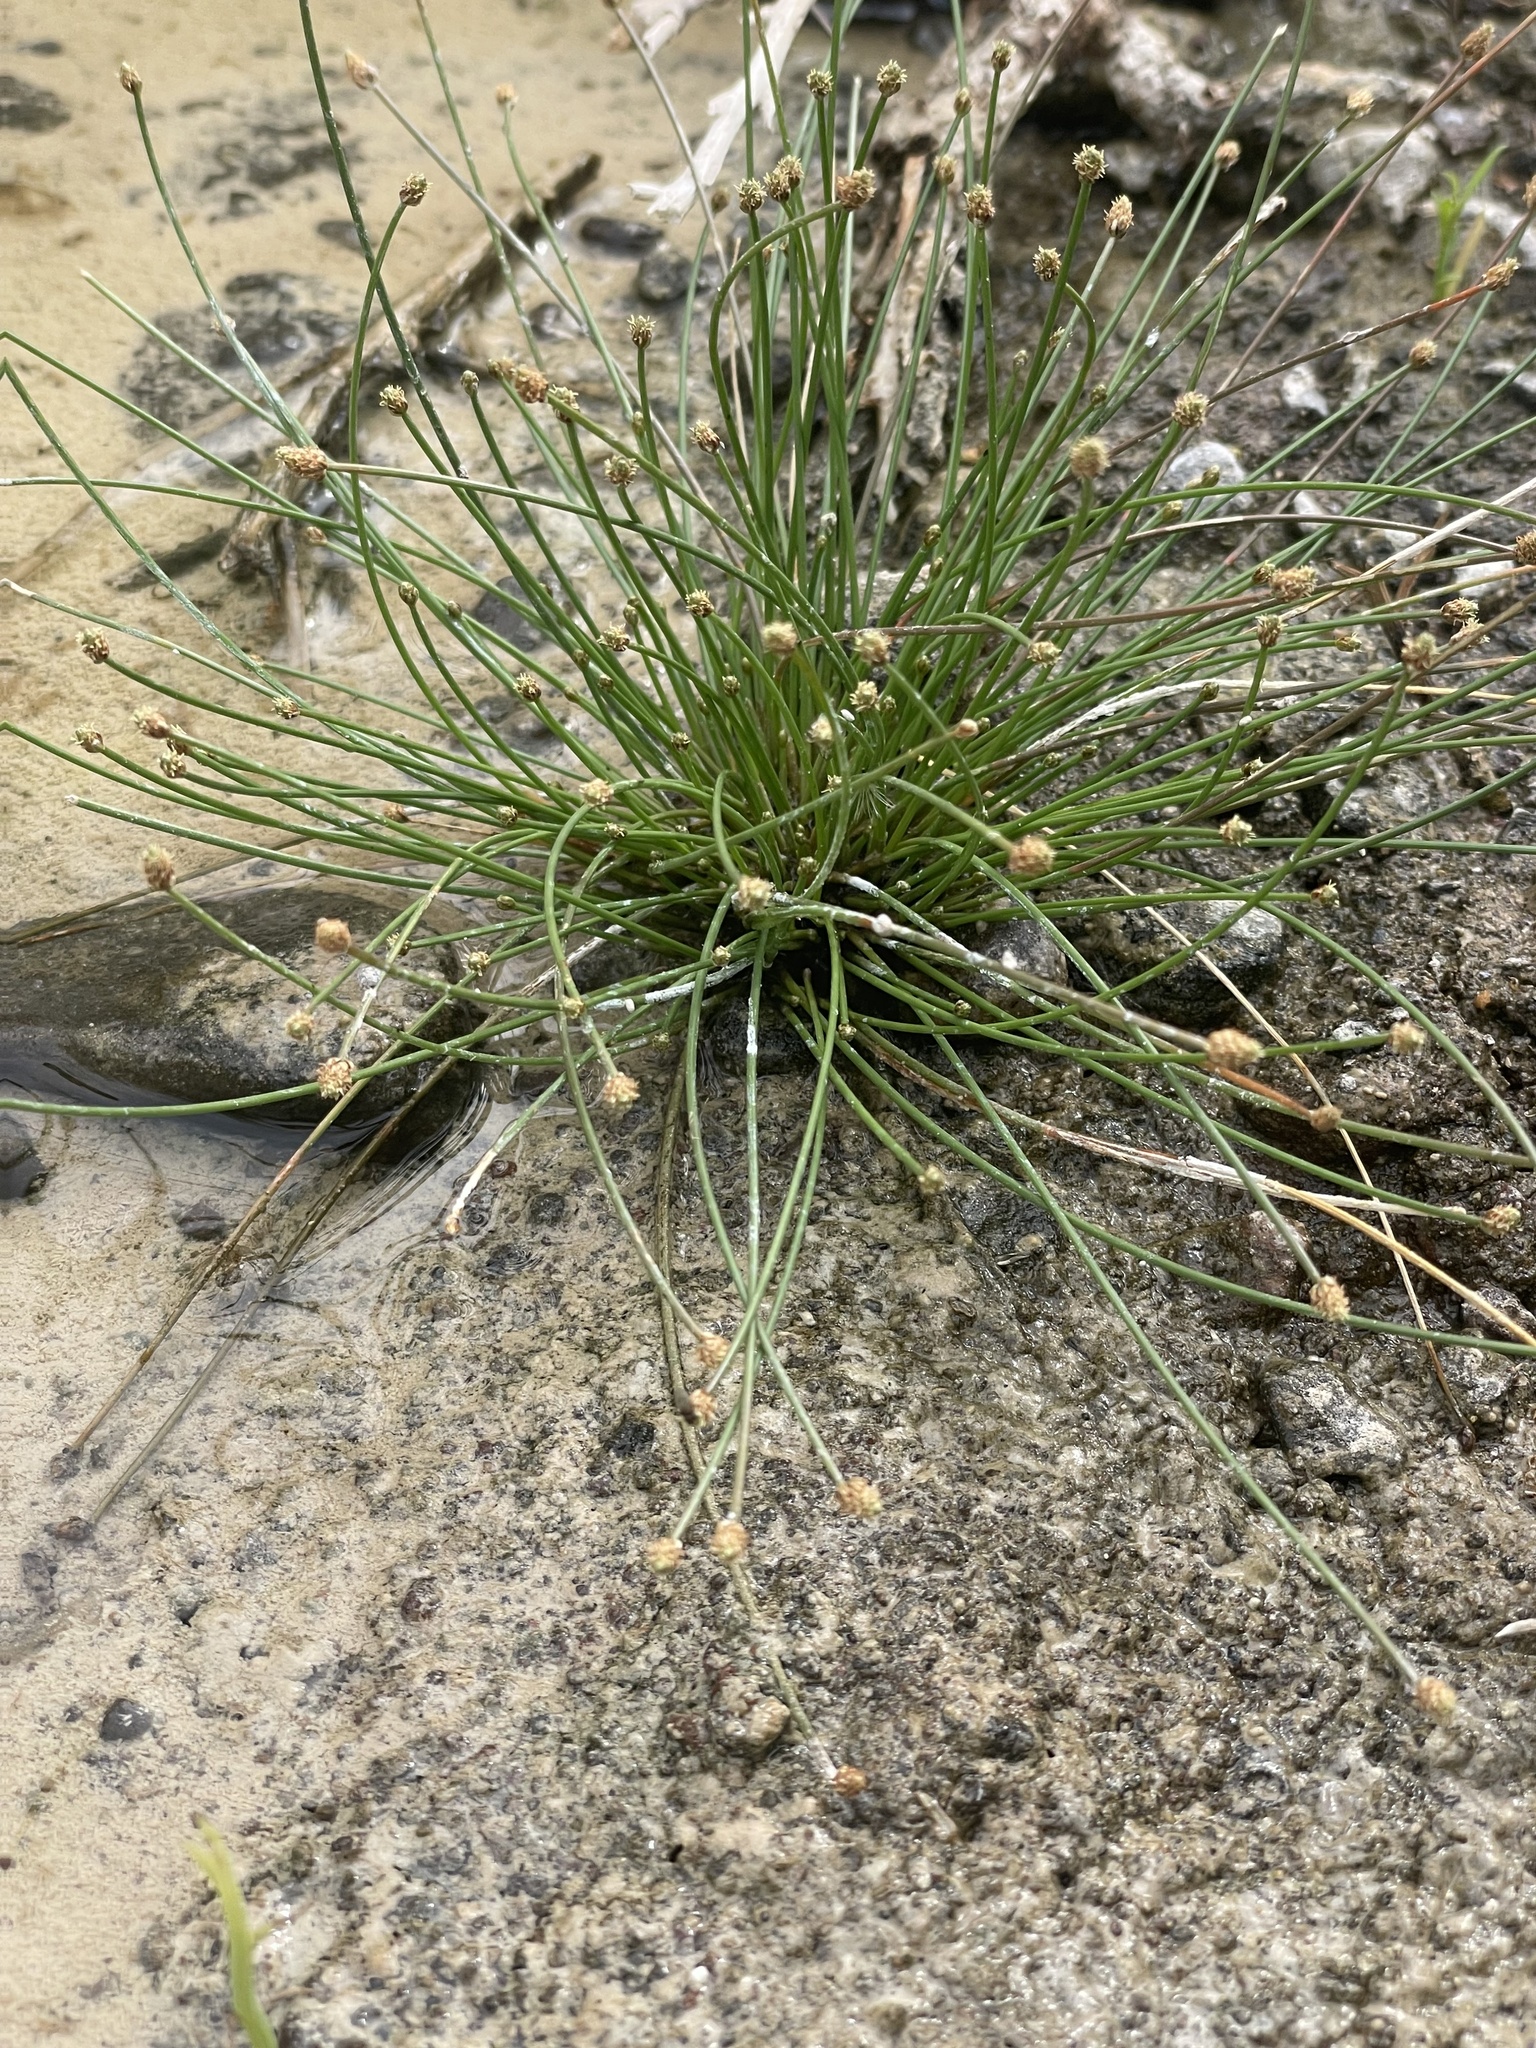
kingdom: Plantae
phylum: Tracheophyta
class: Liliopsida
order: Poales
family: Cyperaceae
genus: Eleocharis
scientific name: Eleocharis geniculata
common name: Canada spikesedge
